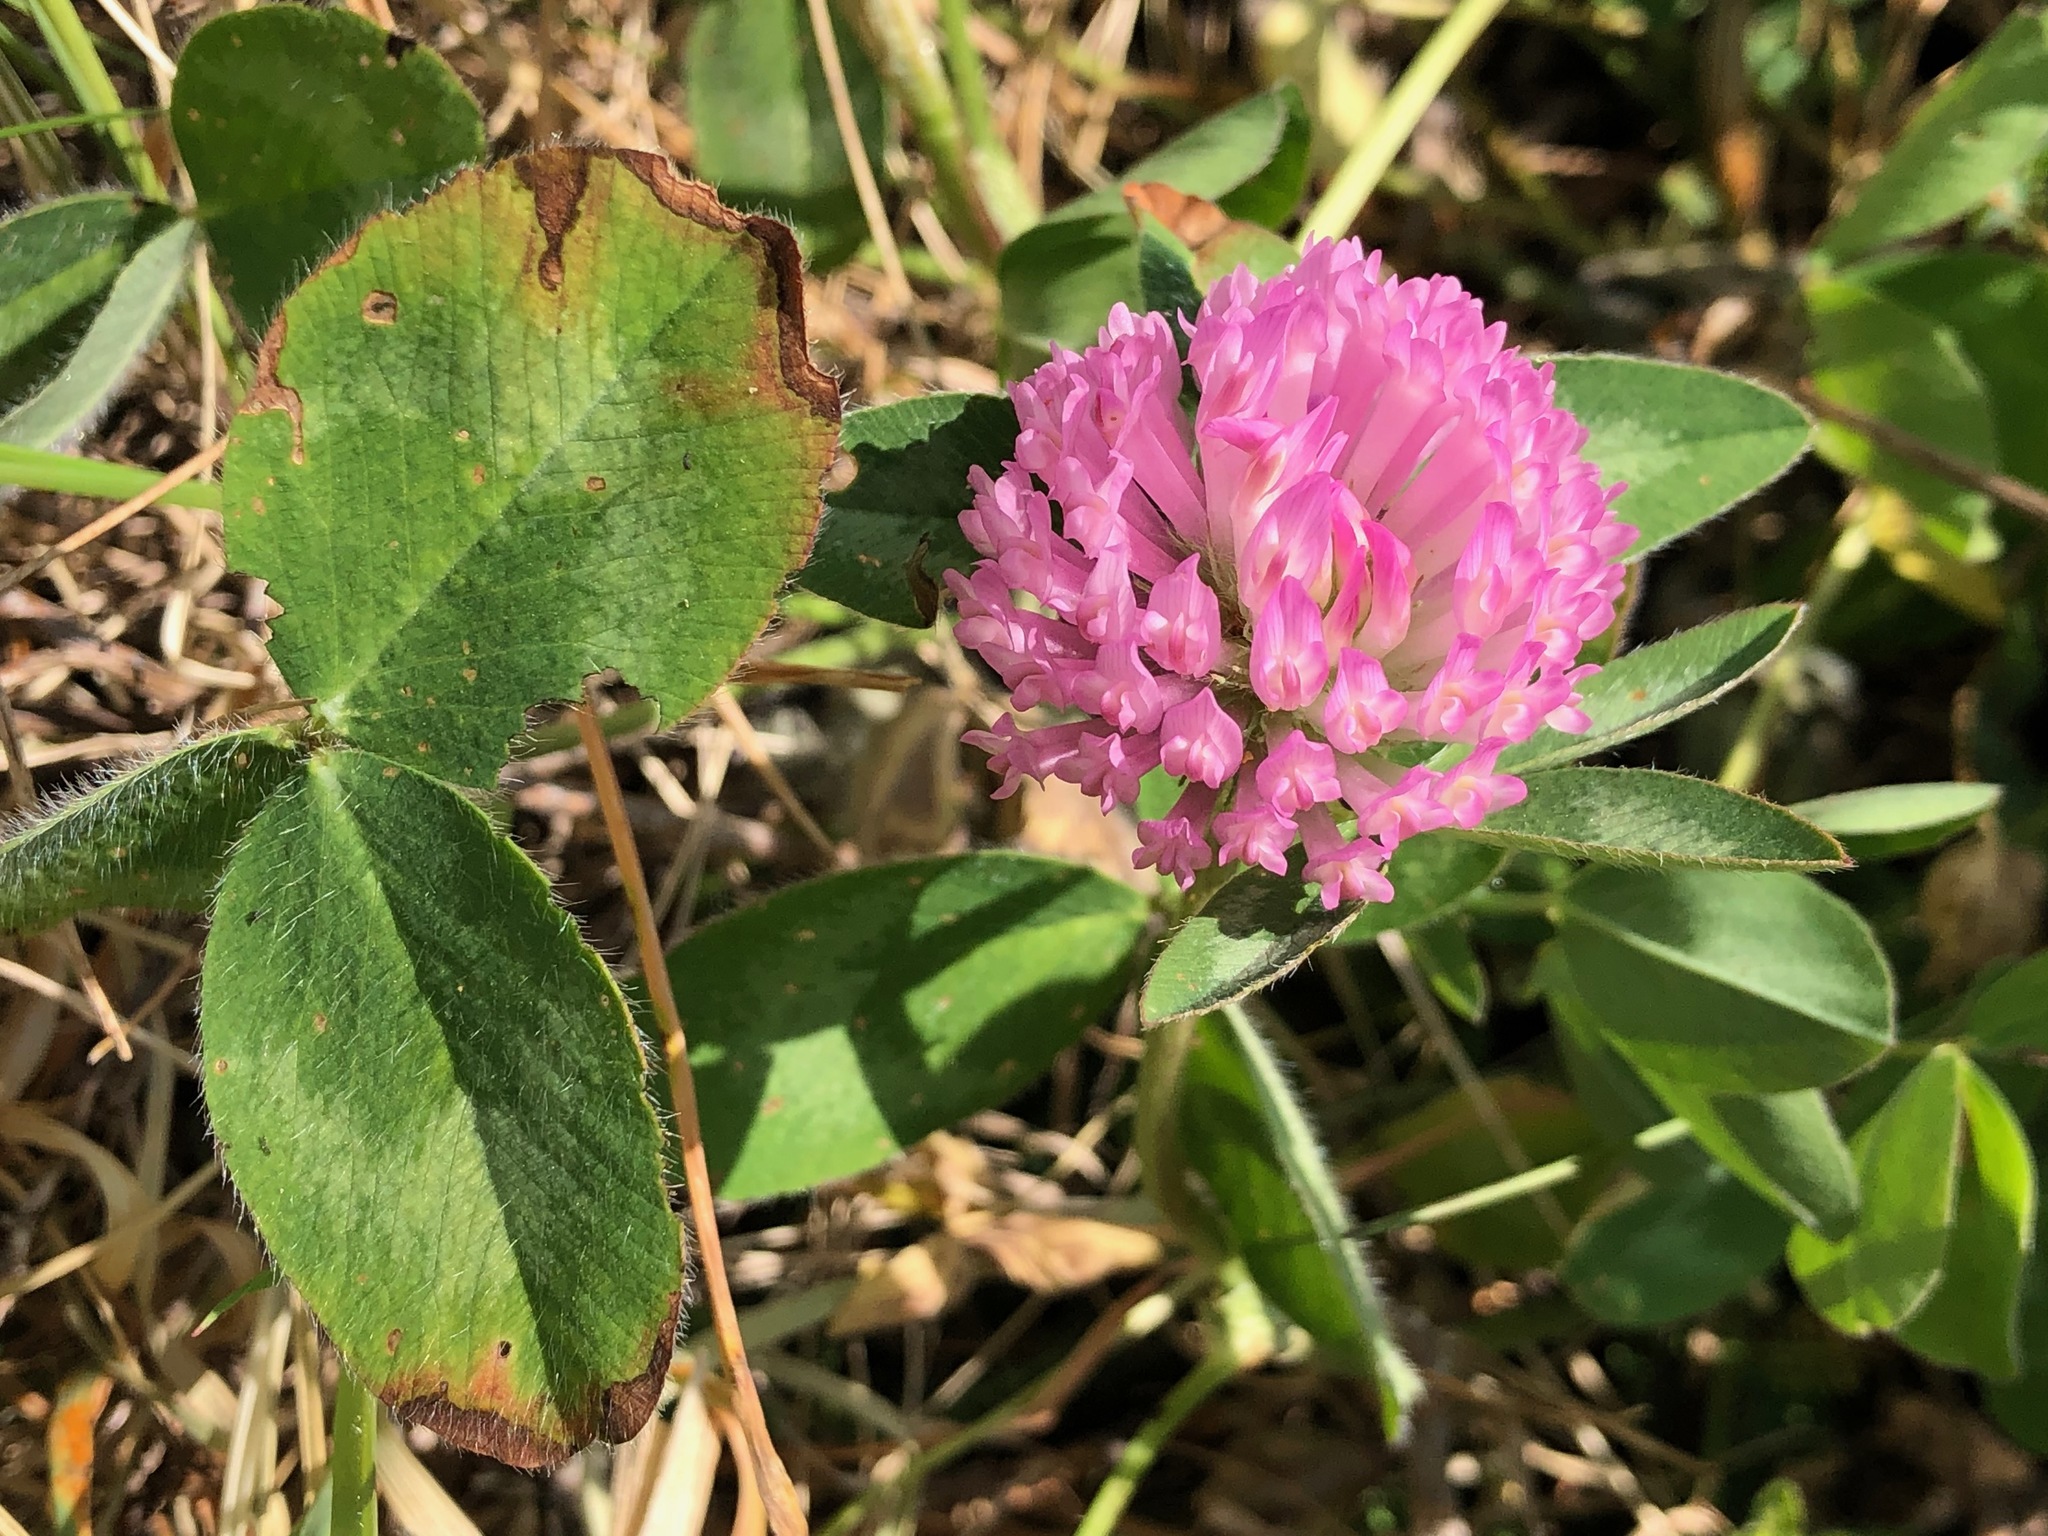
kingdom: Plantae
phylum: Tracheophyta
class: Magnoliopsida
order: Fabales
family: Fabaceae
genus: Trifolium
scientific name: Trifolium pratense
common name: Red clover
